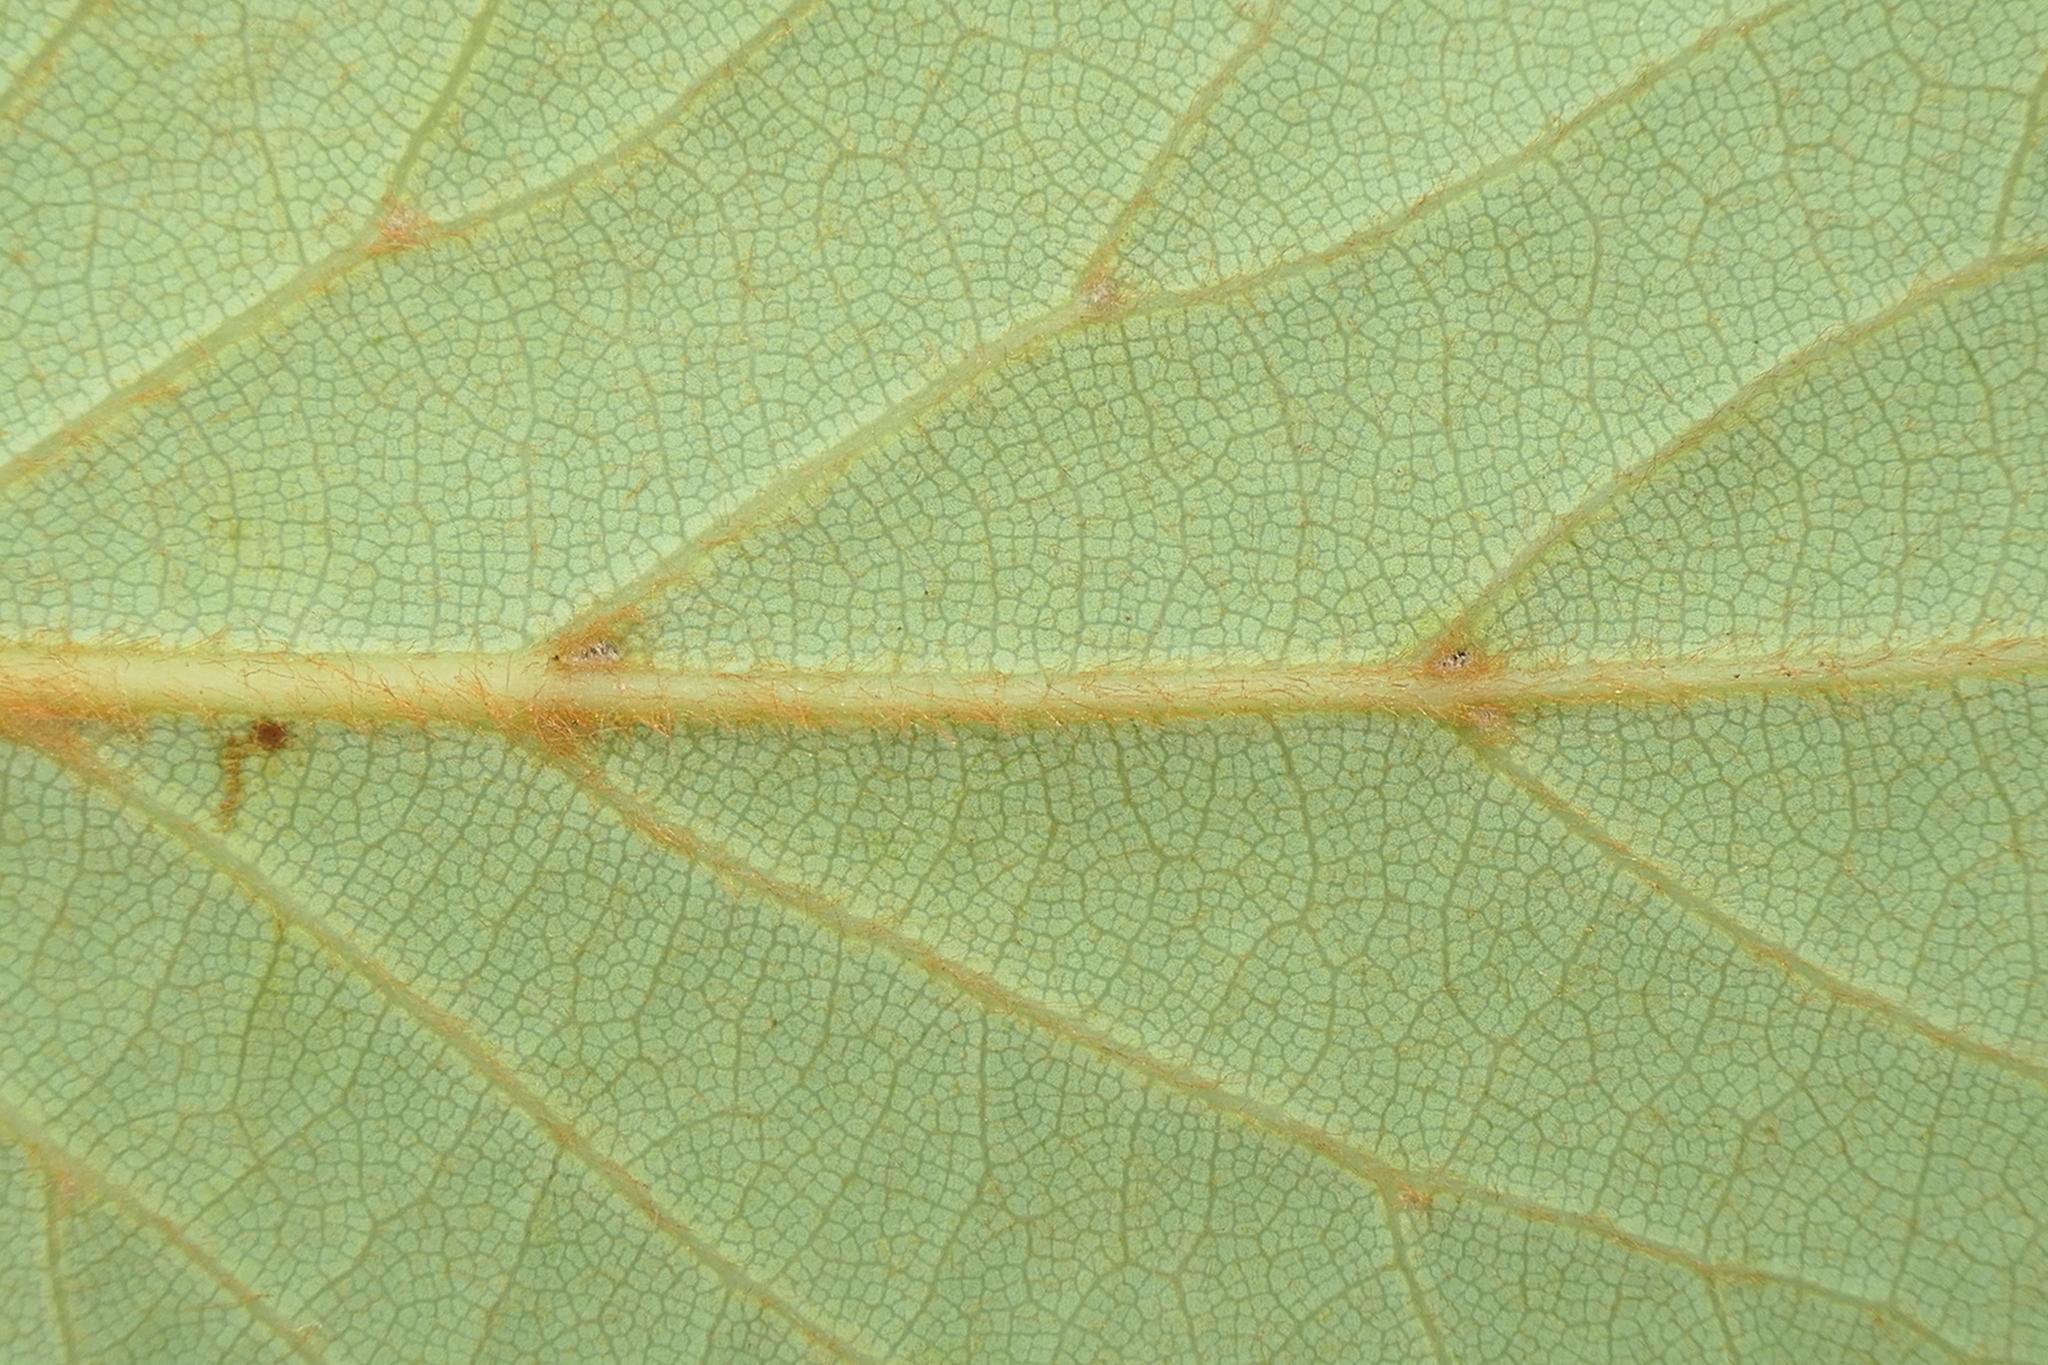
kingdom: Plantae
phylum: Tracheophyta
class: Magnoliopsida
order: Laurales
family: Lauraceae
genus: Laurus
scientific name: Laurus azorica
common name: Macaronesian laurel
